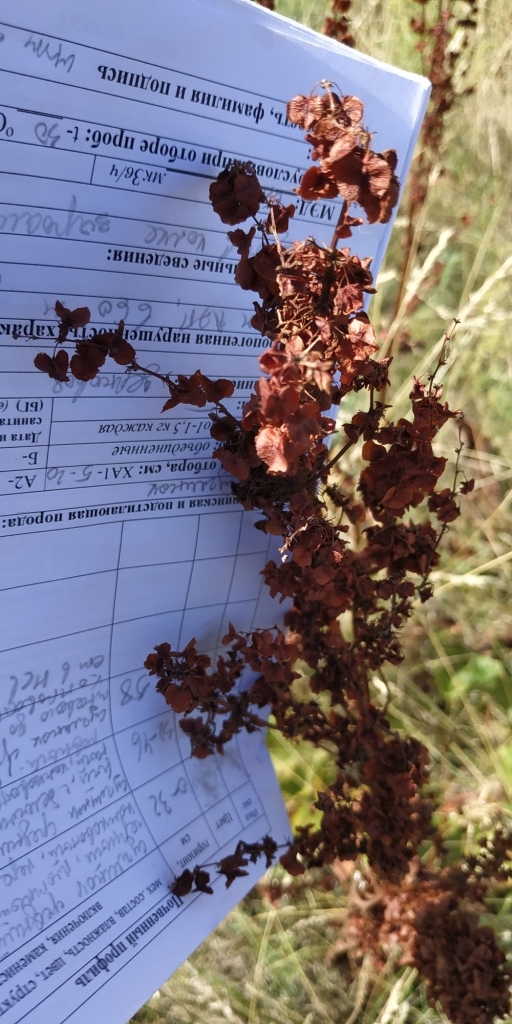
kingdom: Plantae
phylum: Tracheophyta
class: Magnoliopsida
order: Caryophyllales
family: Polygonaceae
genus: Rumex
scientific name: Rumex aquaticus
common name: Scottish dock
